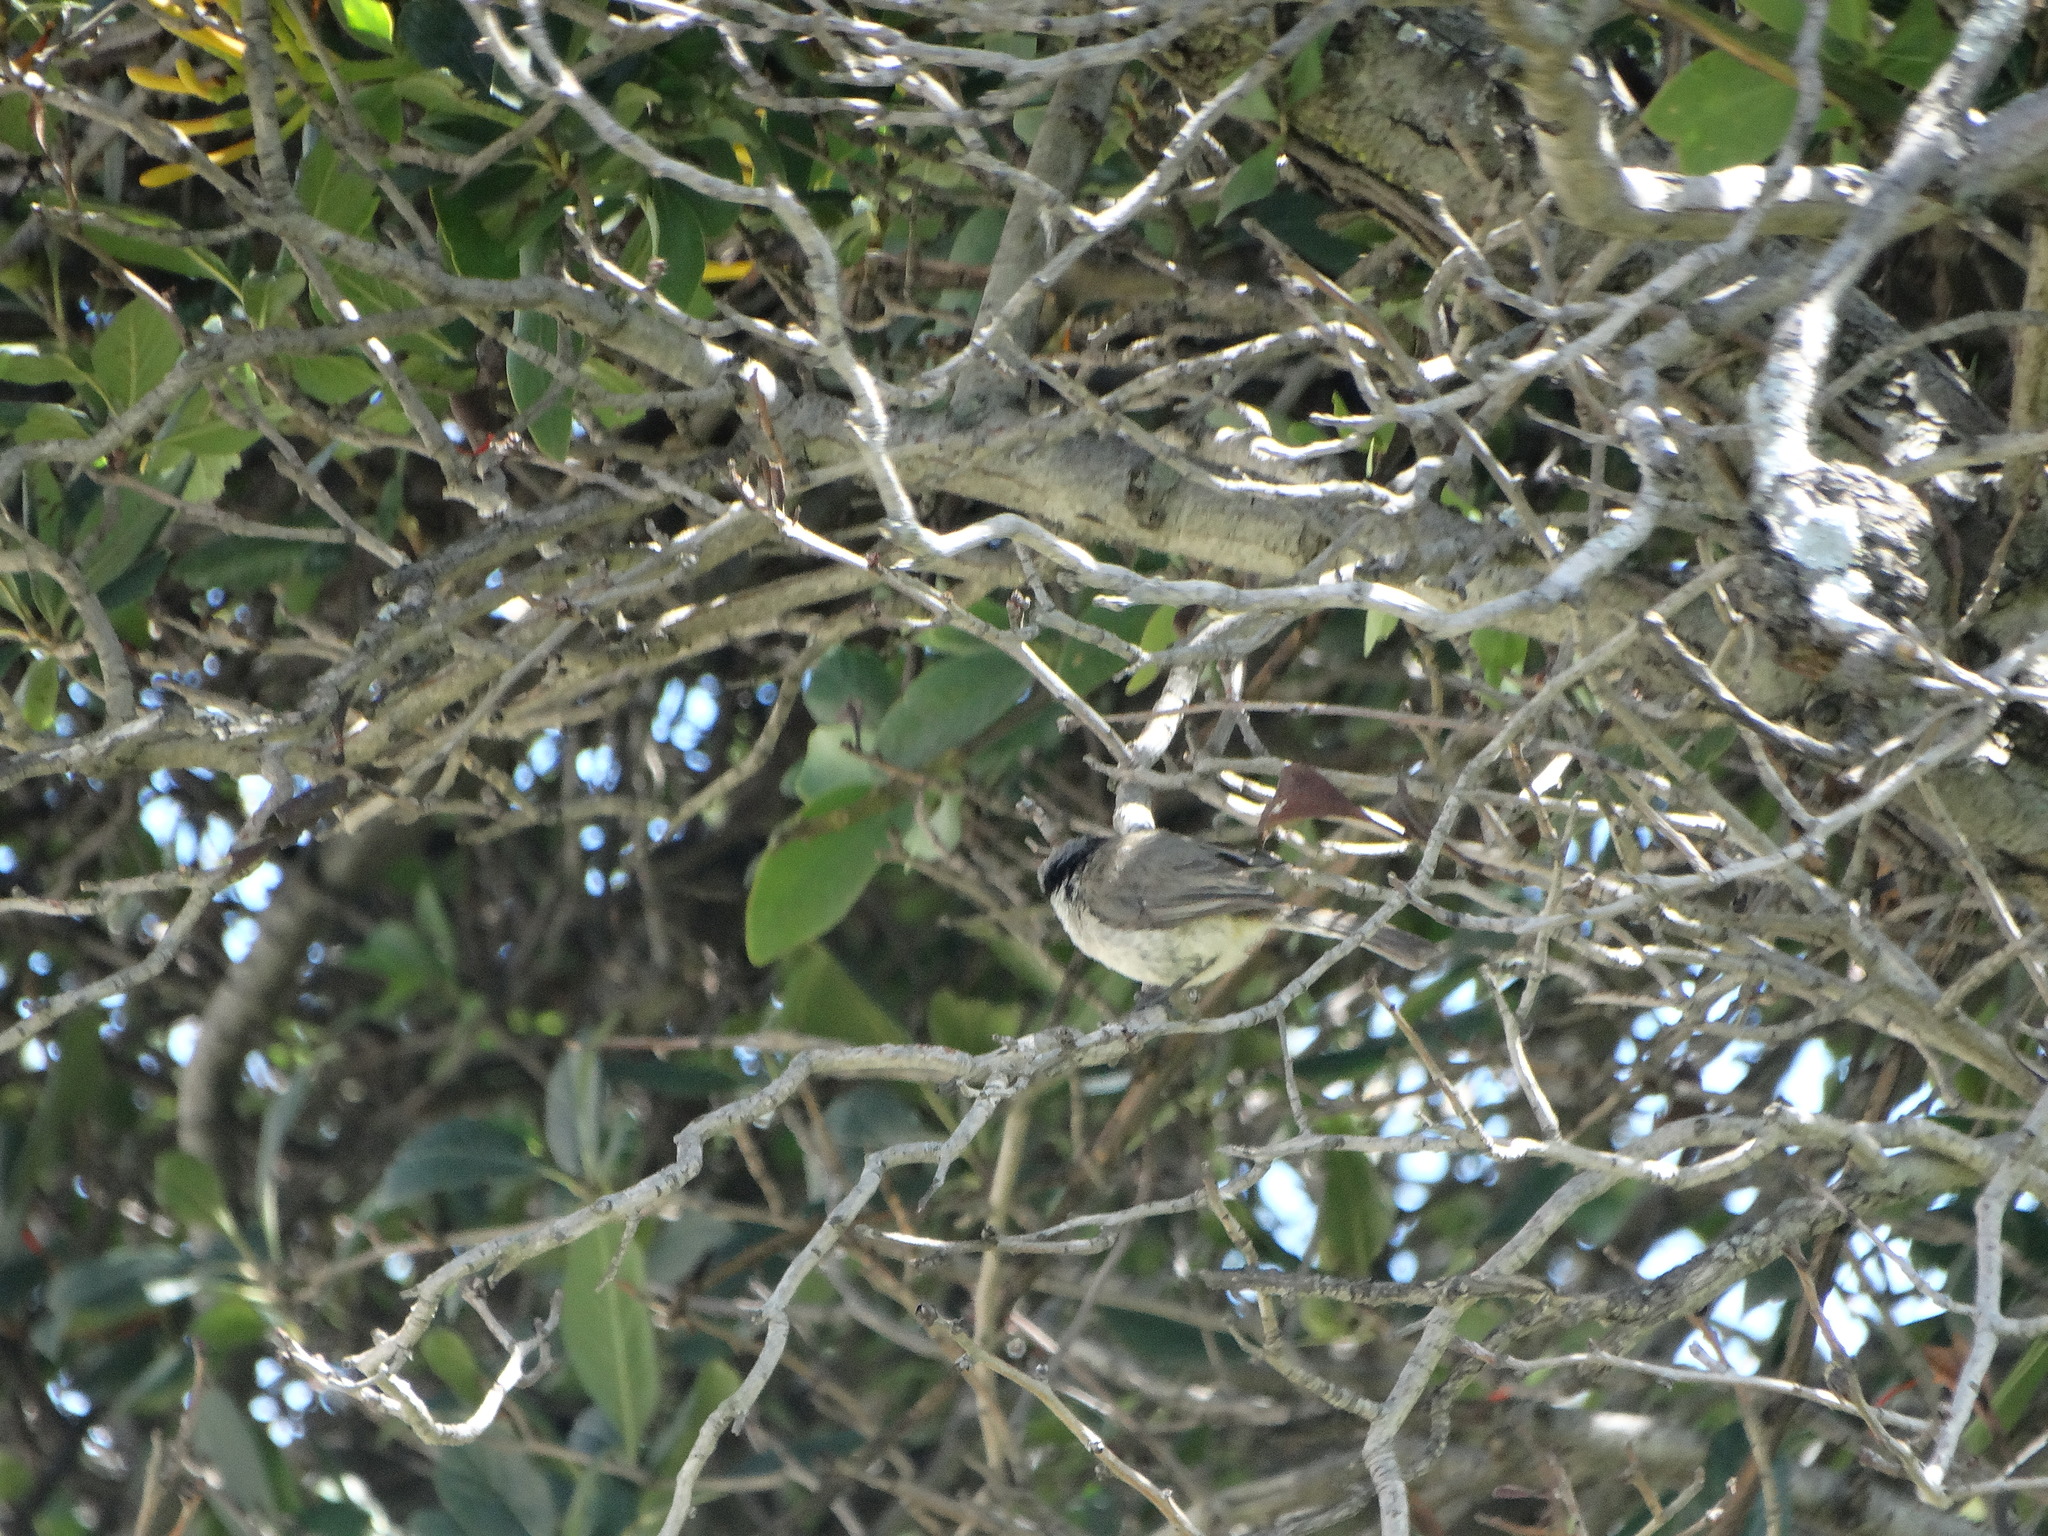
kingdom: Animalia
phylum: Chordata
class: Aves
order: Passeriformes
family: Aegithalidae
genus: Psaltriparus
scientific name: Psaltriparus minimus
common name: American bushtit
